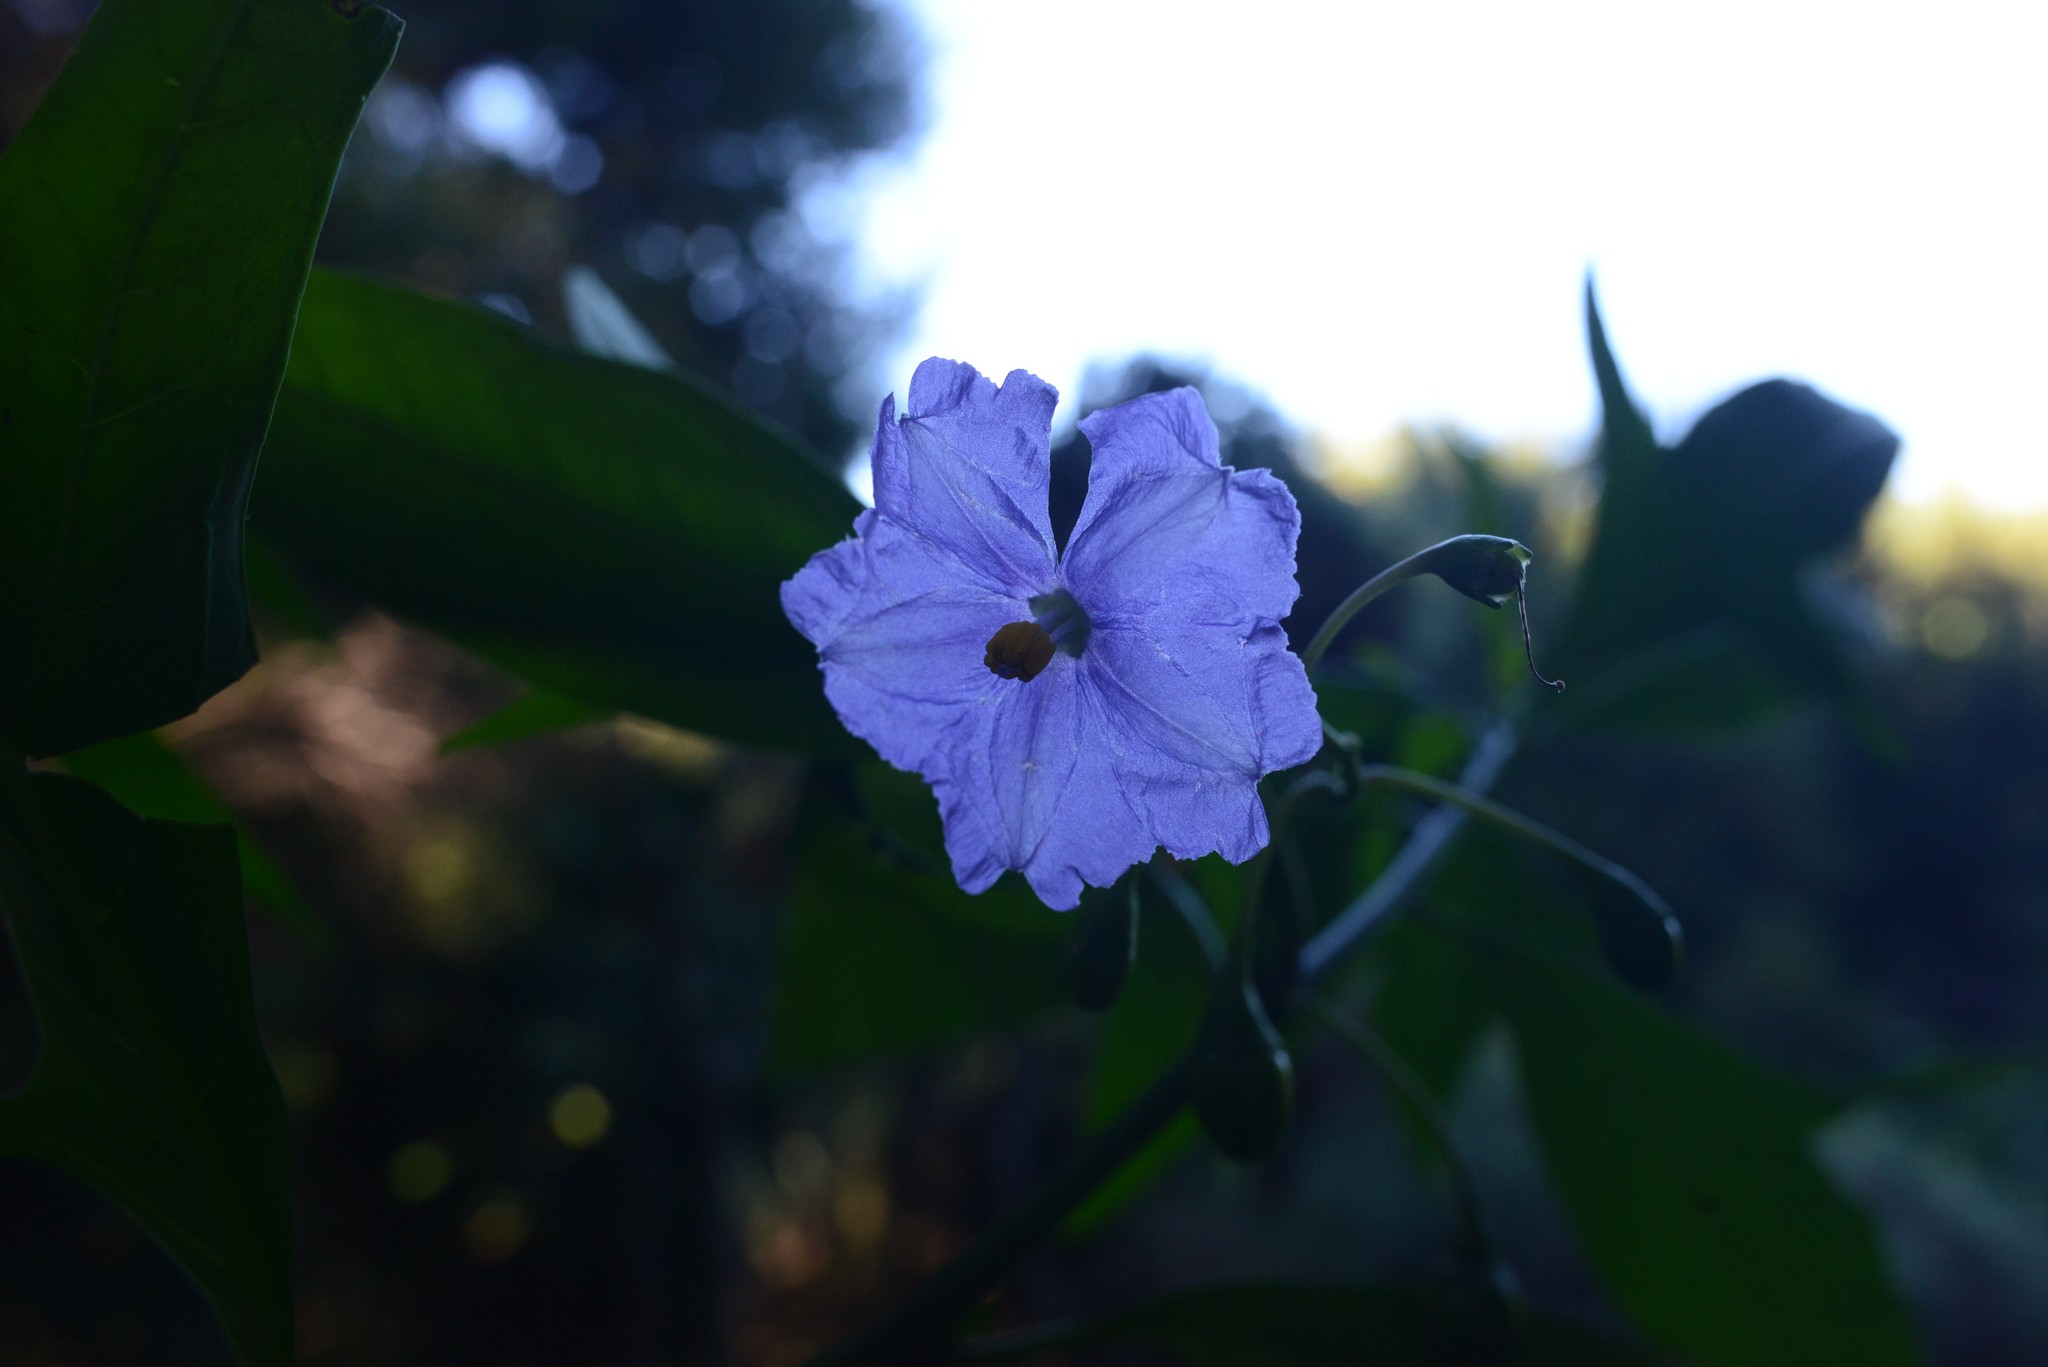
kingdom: Plantae
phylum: Tracheophyta
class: Magnoliopsida
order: Solanales
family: Solanaceae
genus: Solanum
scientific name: Solanum laciniatum
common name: Kangaroo-apple
